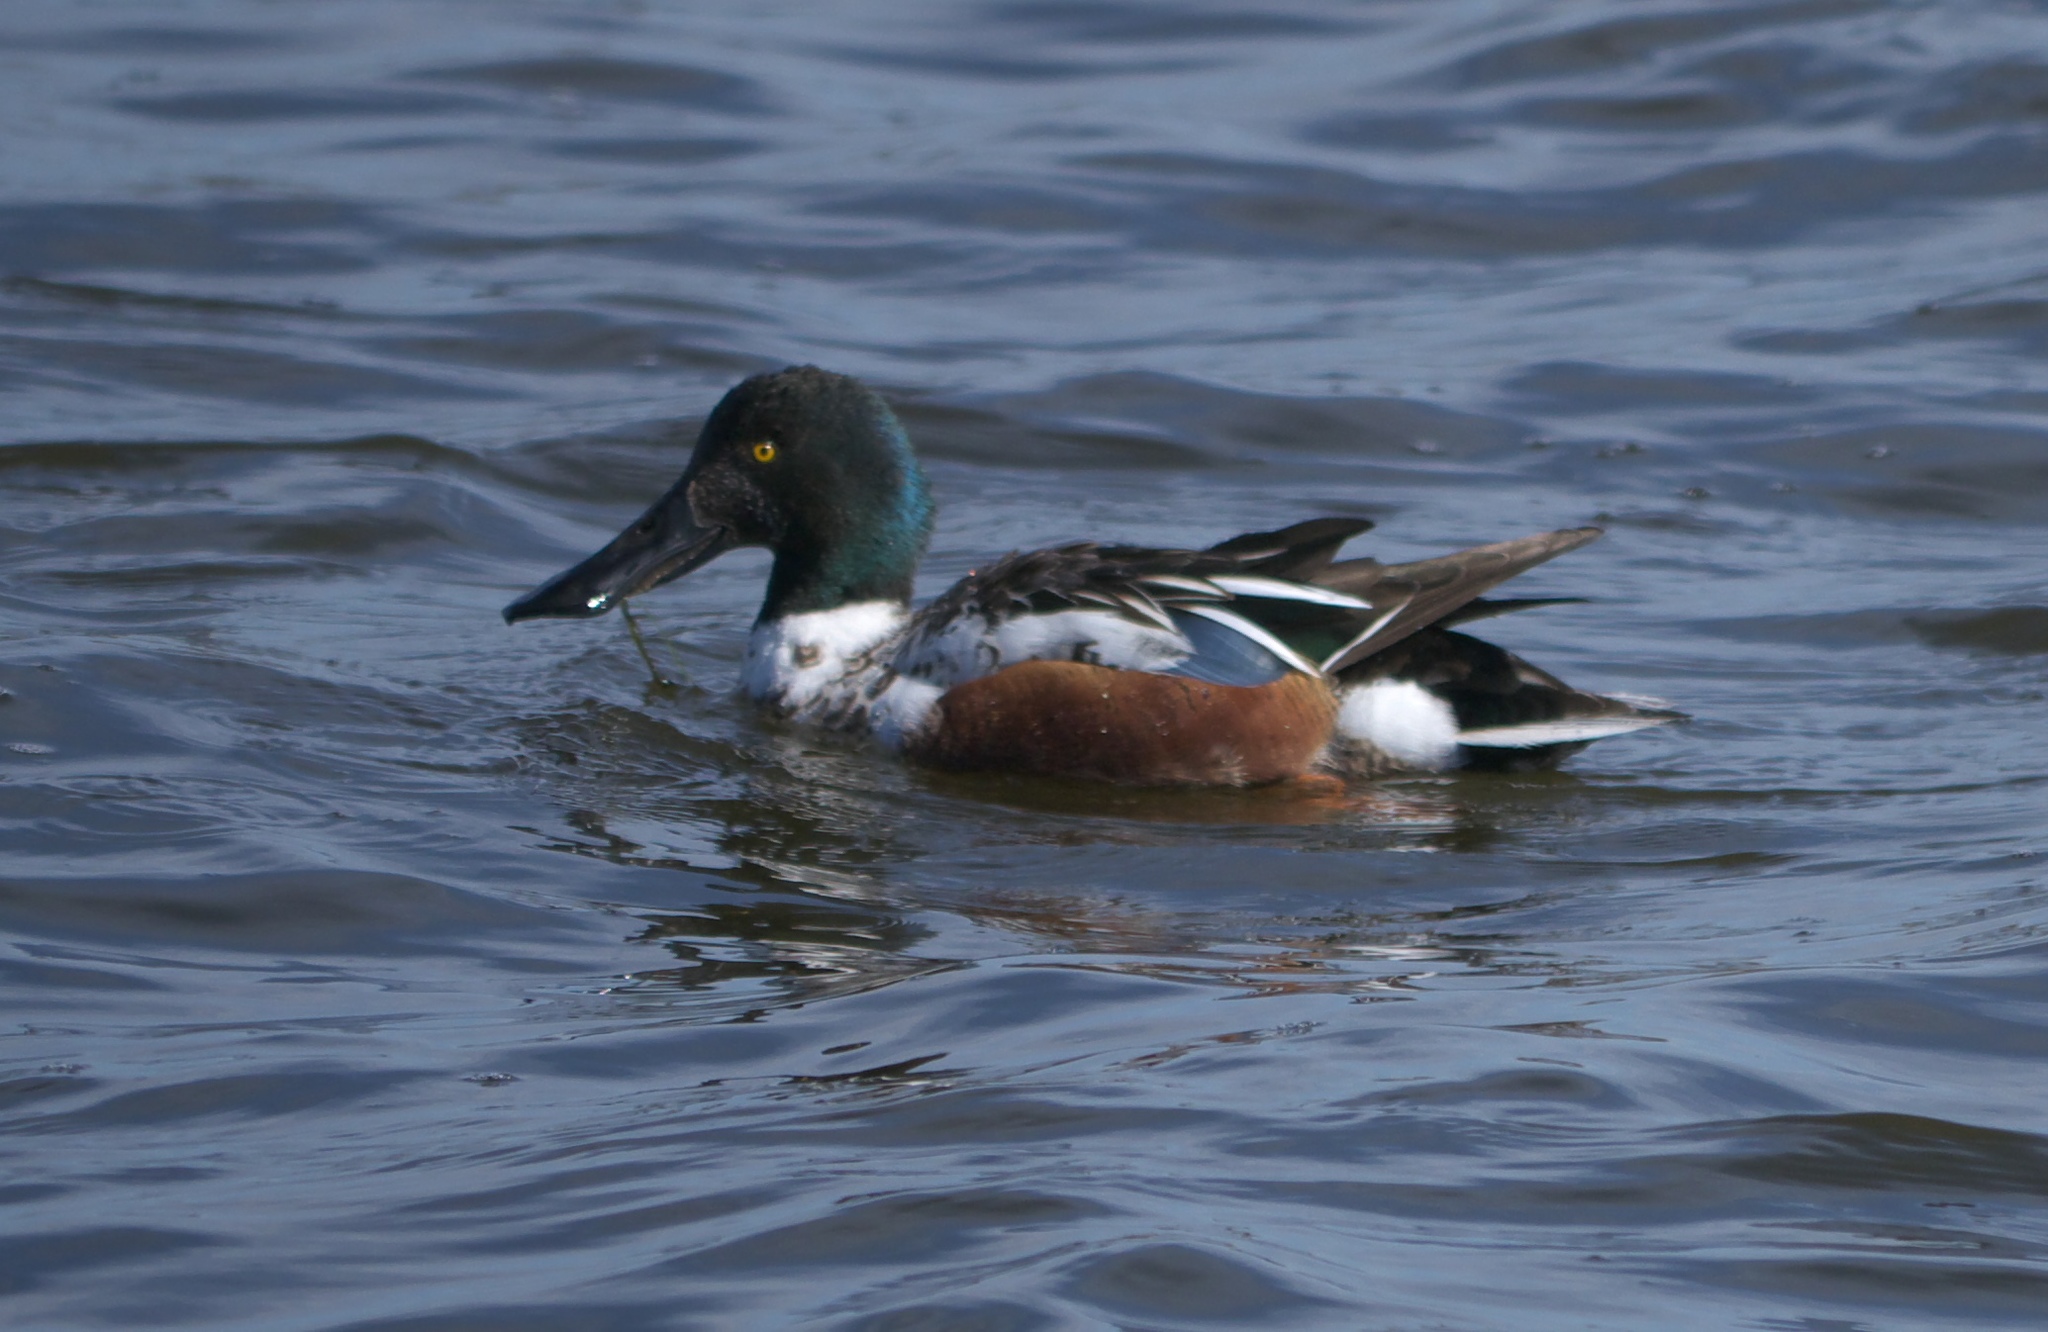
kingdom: Animalia
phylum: Chordata
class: Aves
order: Anseriformes
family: Anatidae
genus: Spatula
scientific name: Spatula clypeata
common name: Northern shoveler
